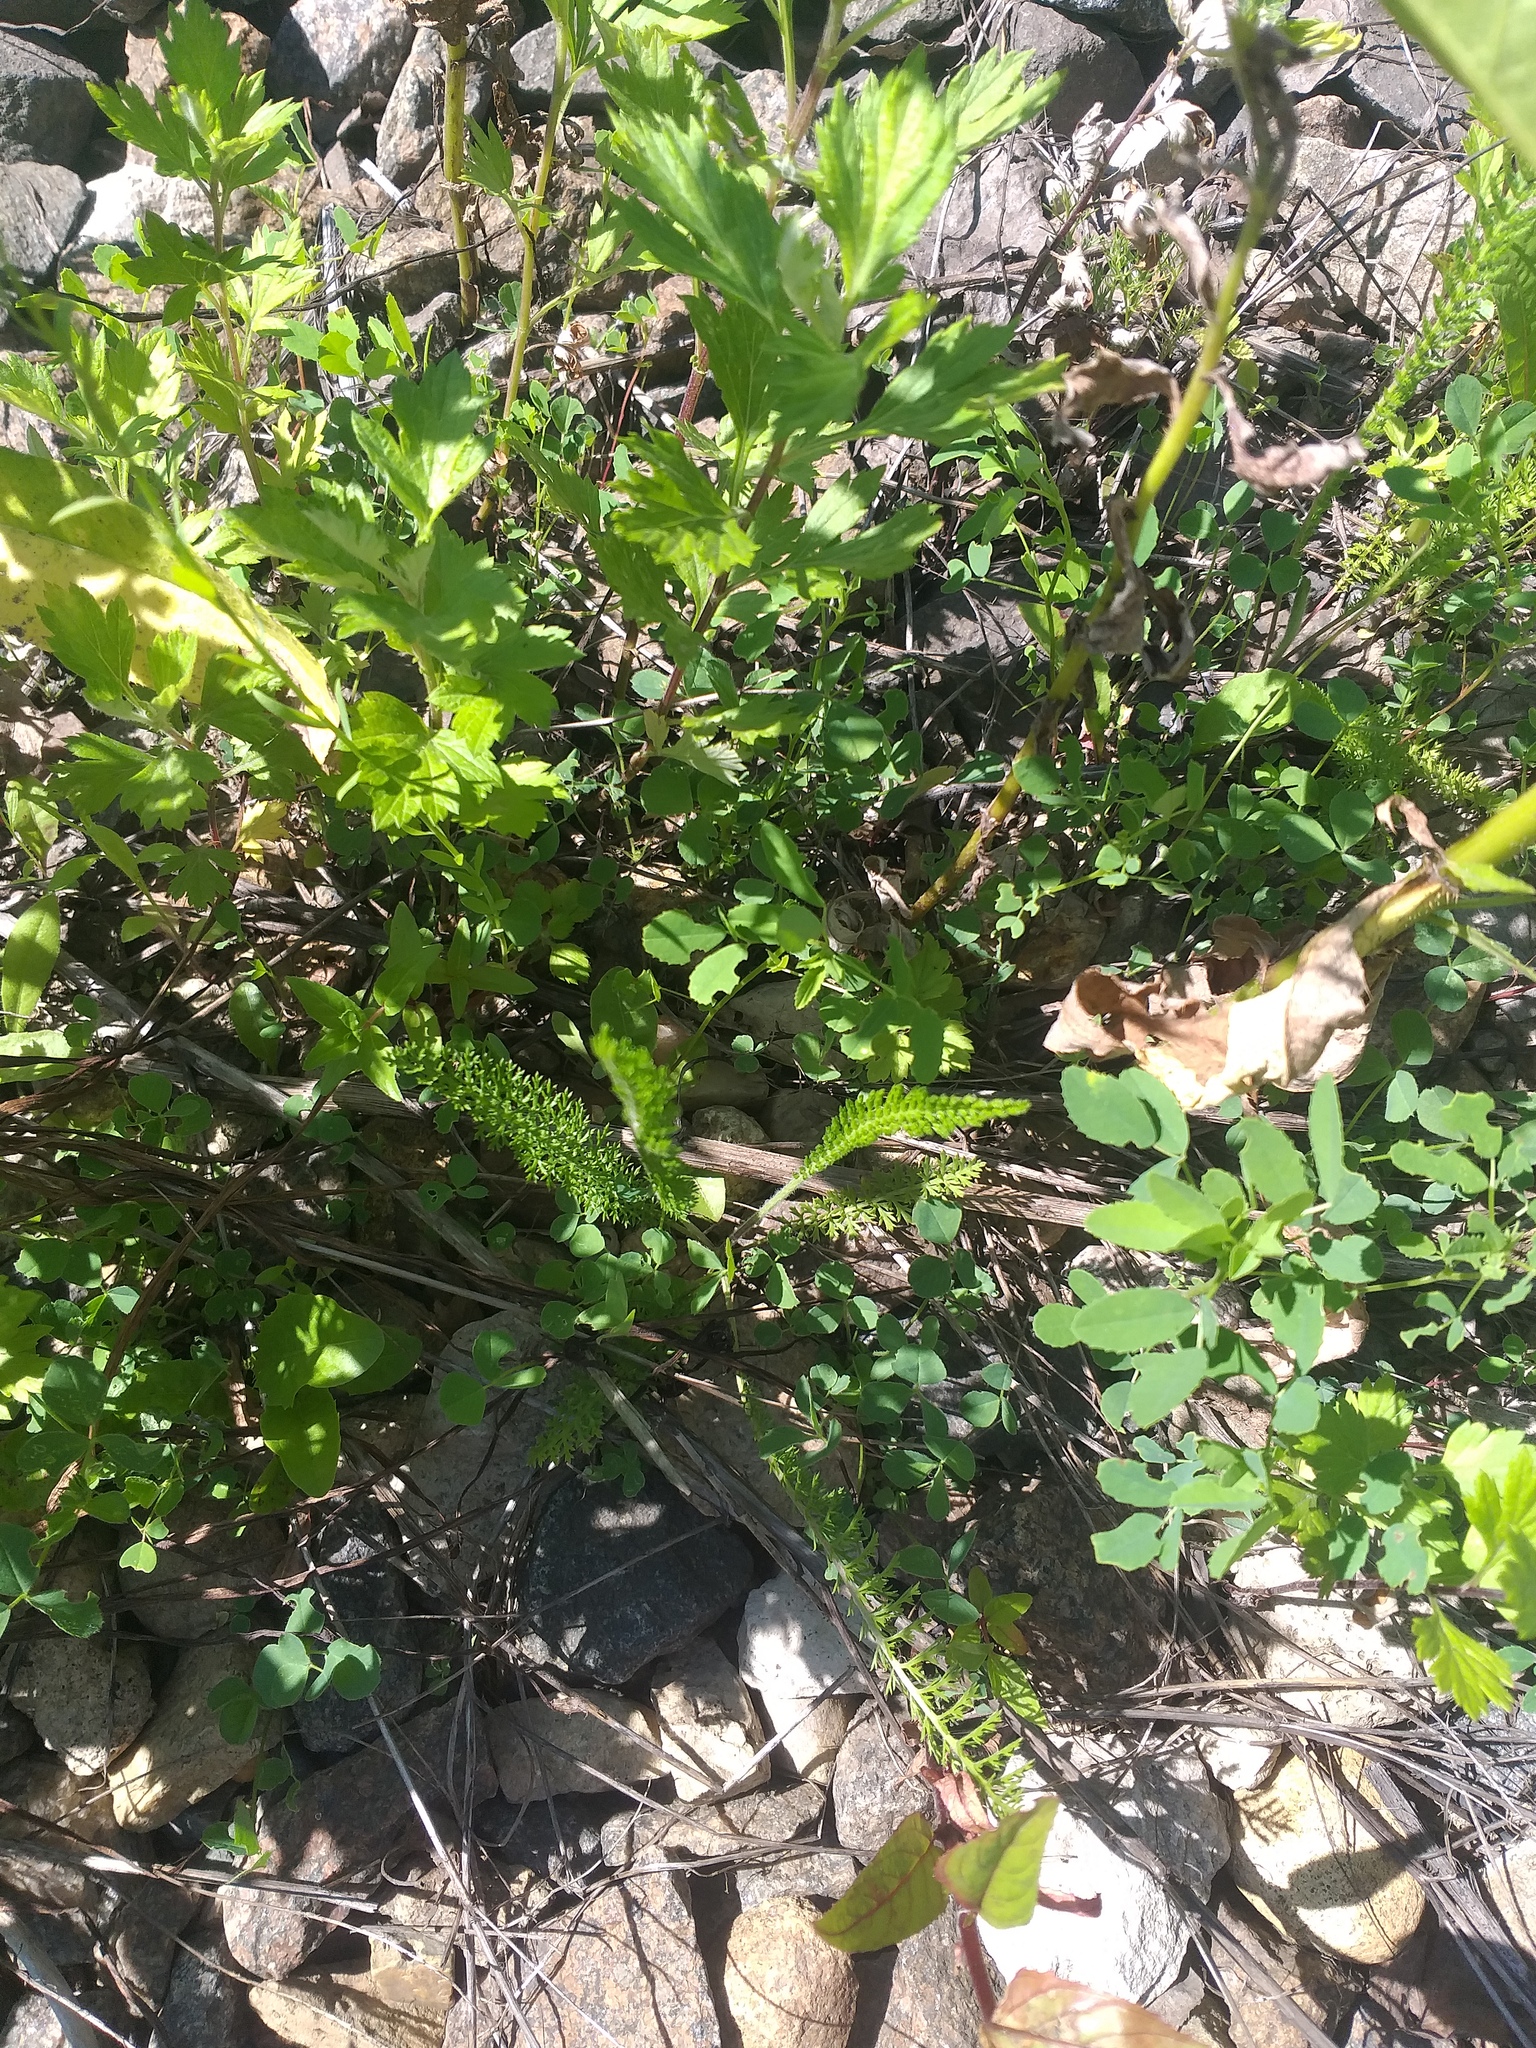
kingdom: Plantae
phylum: Tracheophyta
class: Magnoliopsida
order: Asterales
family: Asteraceae
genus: Achillea
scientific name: Achillea millefolium
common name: Yarrow
